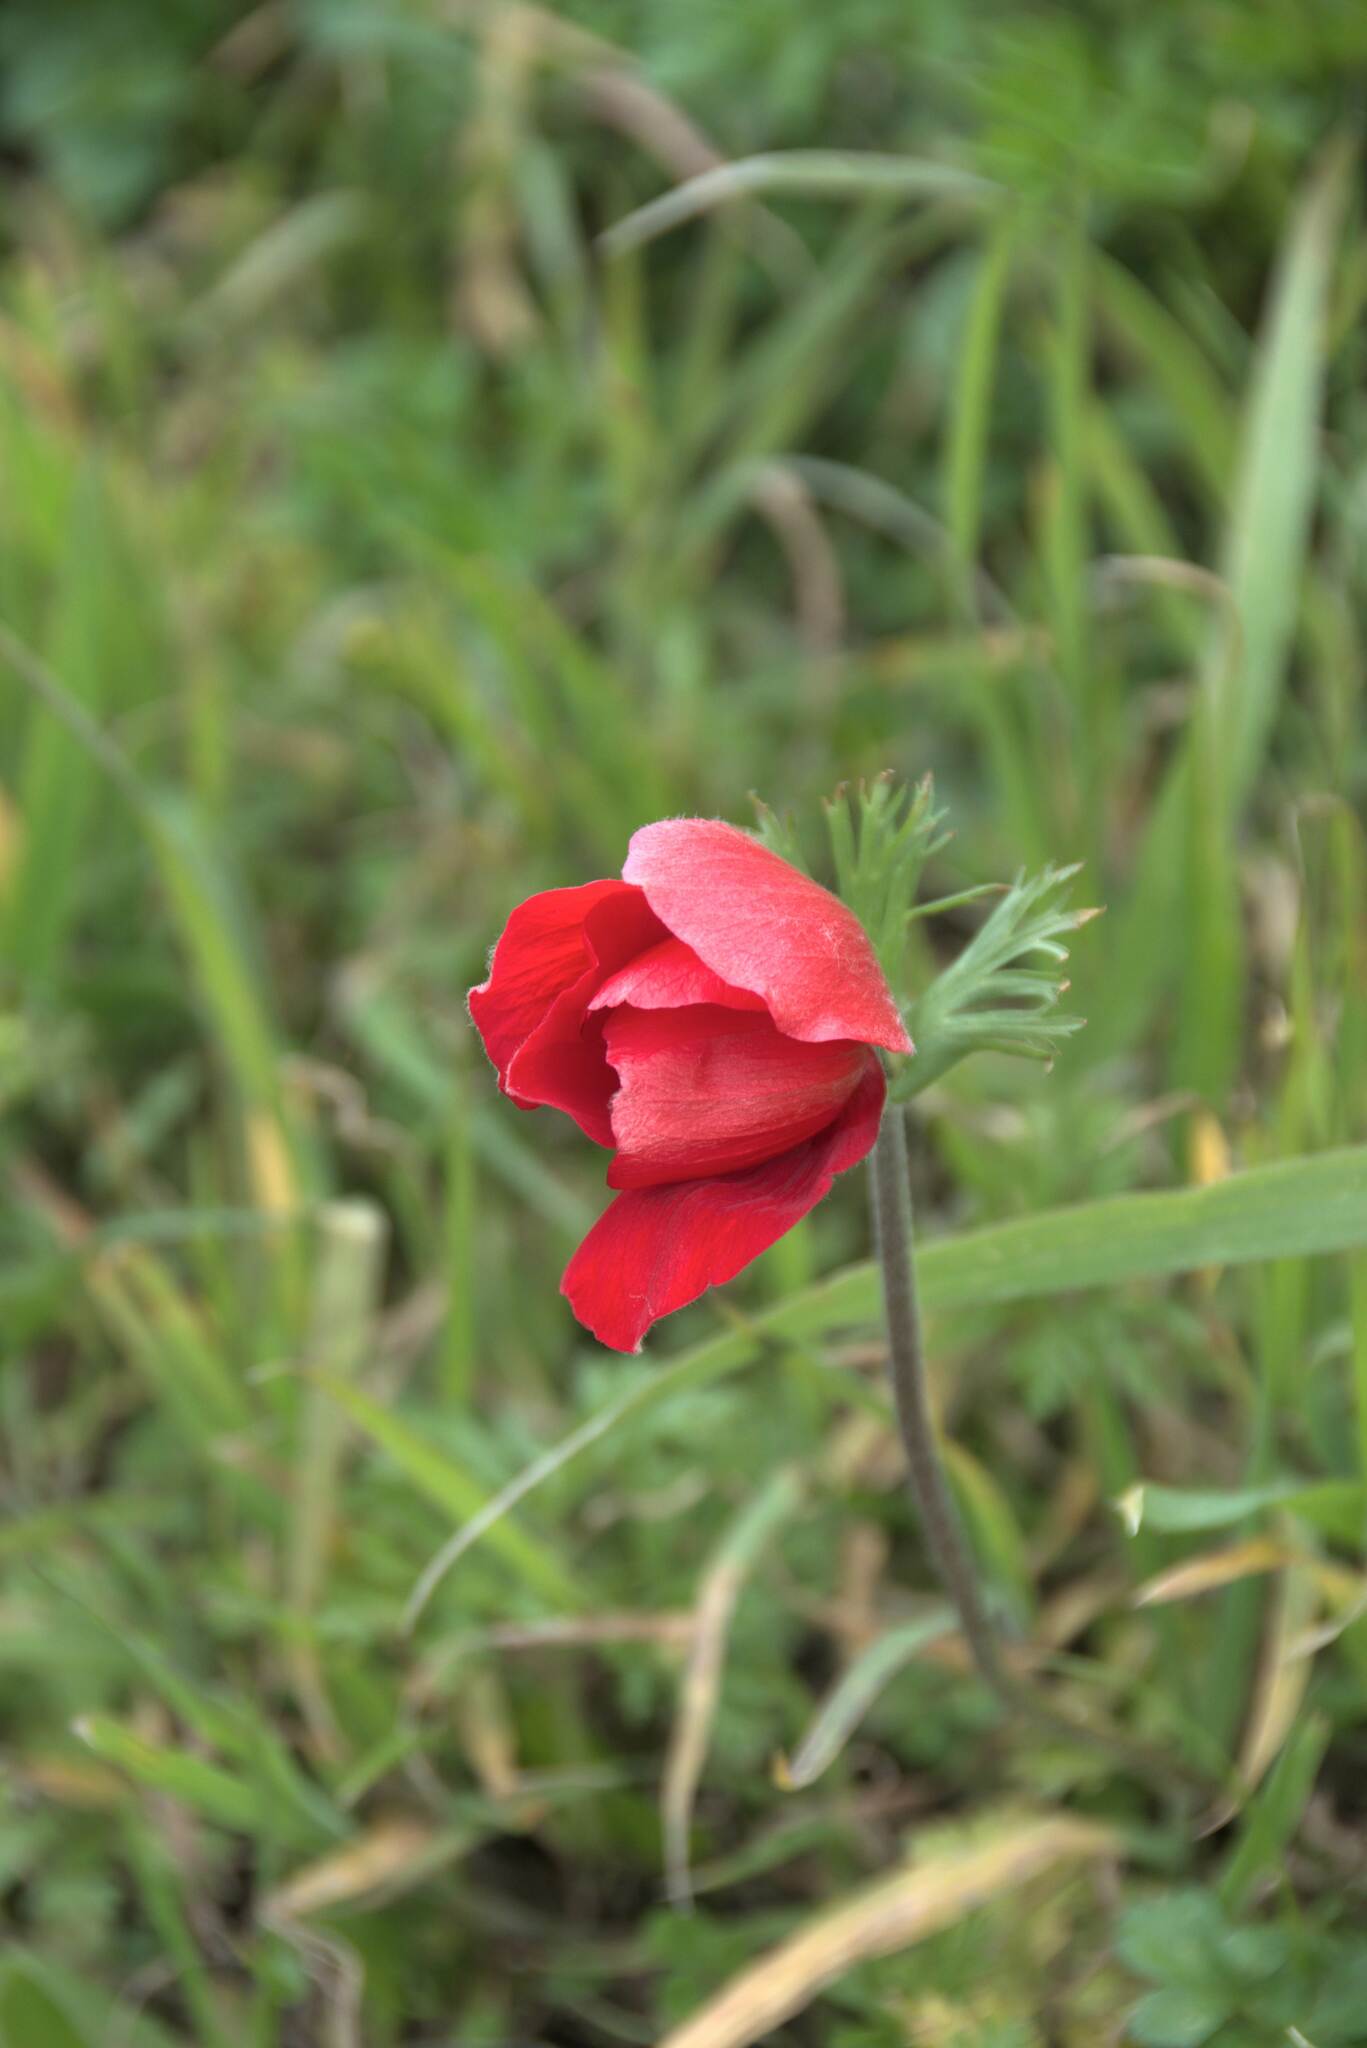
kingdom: Plantae
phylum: Tracheophyta
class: Magnoliopsida
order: Ranunculales
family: Ranunculaceae
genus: Anemone
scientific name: Anemone coronaria
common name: Poppy anemone
